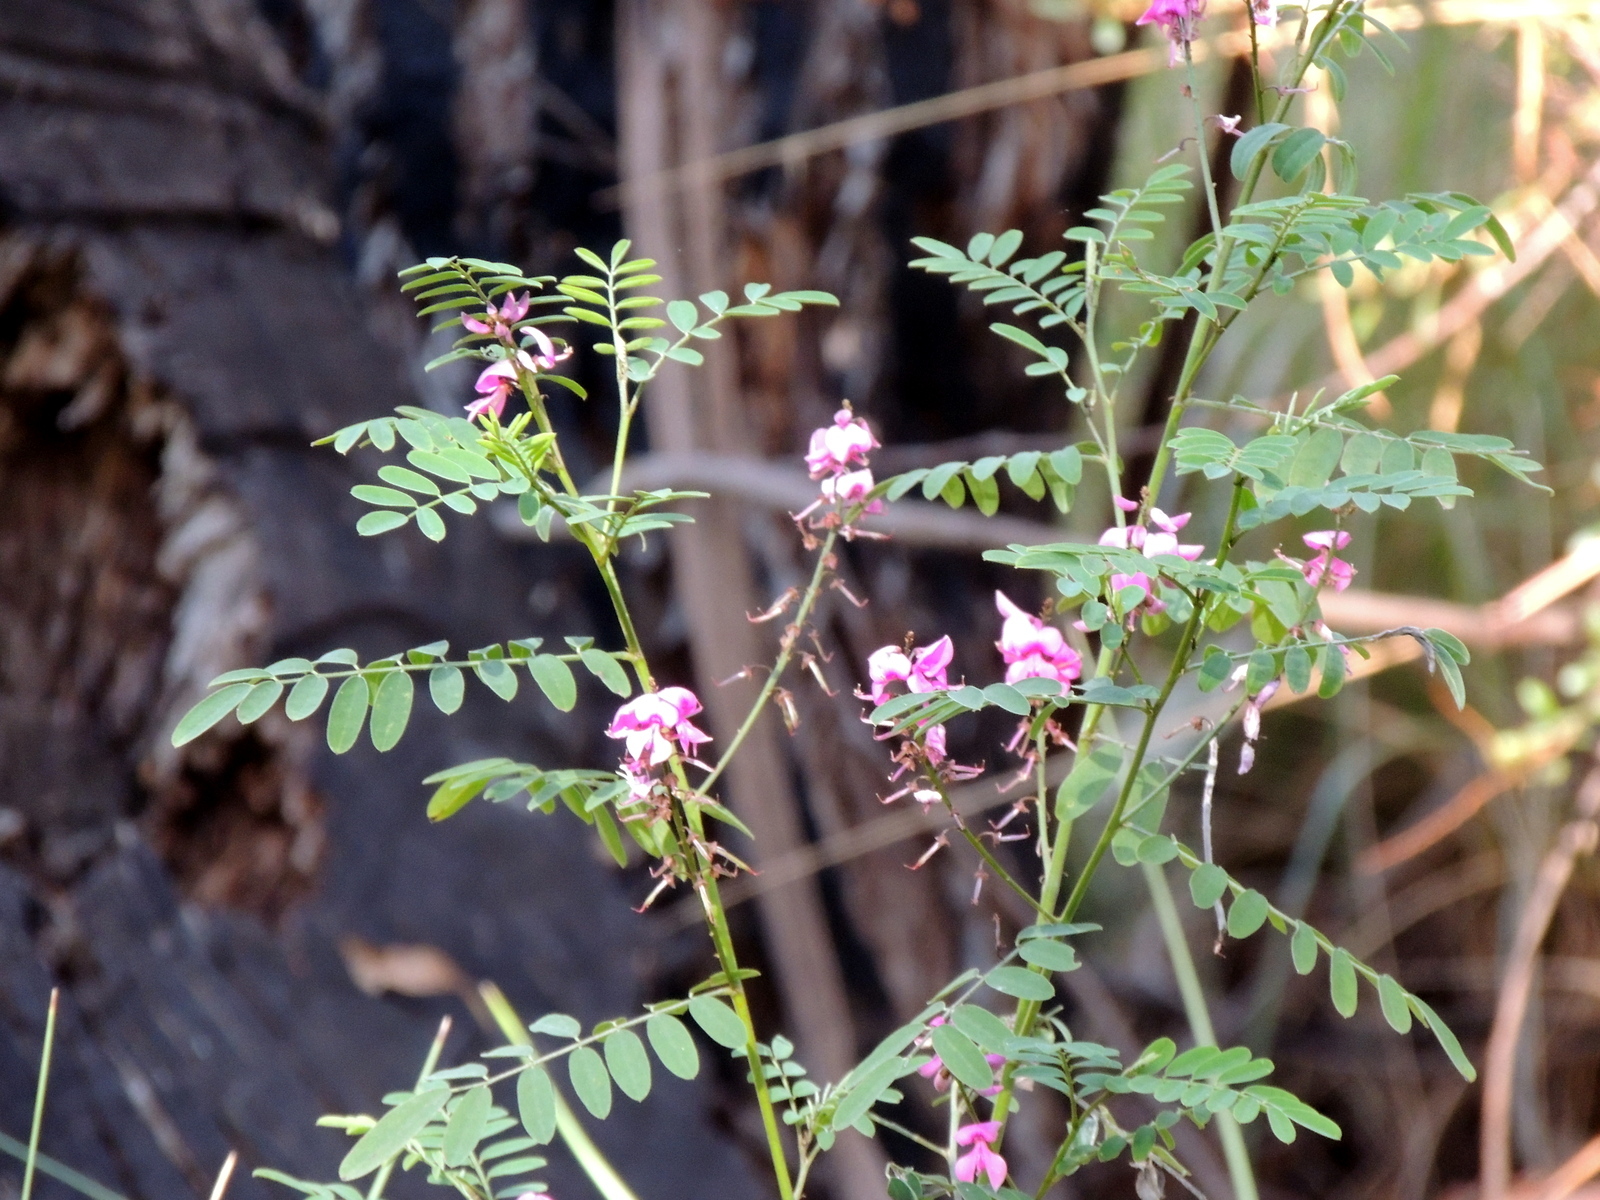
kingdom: Plantae
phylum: Tracheophyta
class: Magnoliopsida
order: Fabales
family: Fabaceae
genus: Indigofera
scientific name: Indigofera australis
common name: Australian indigo
